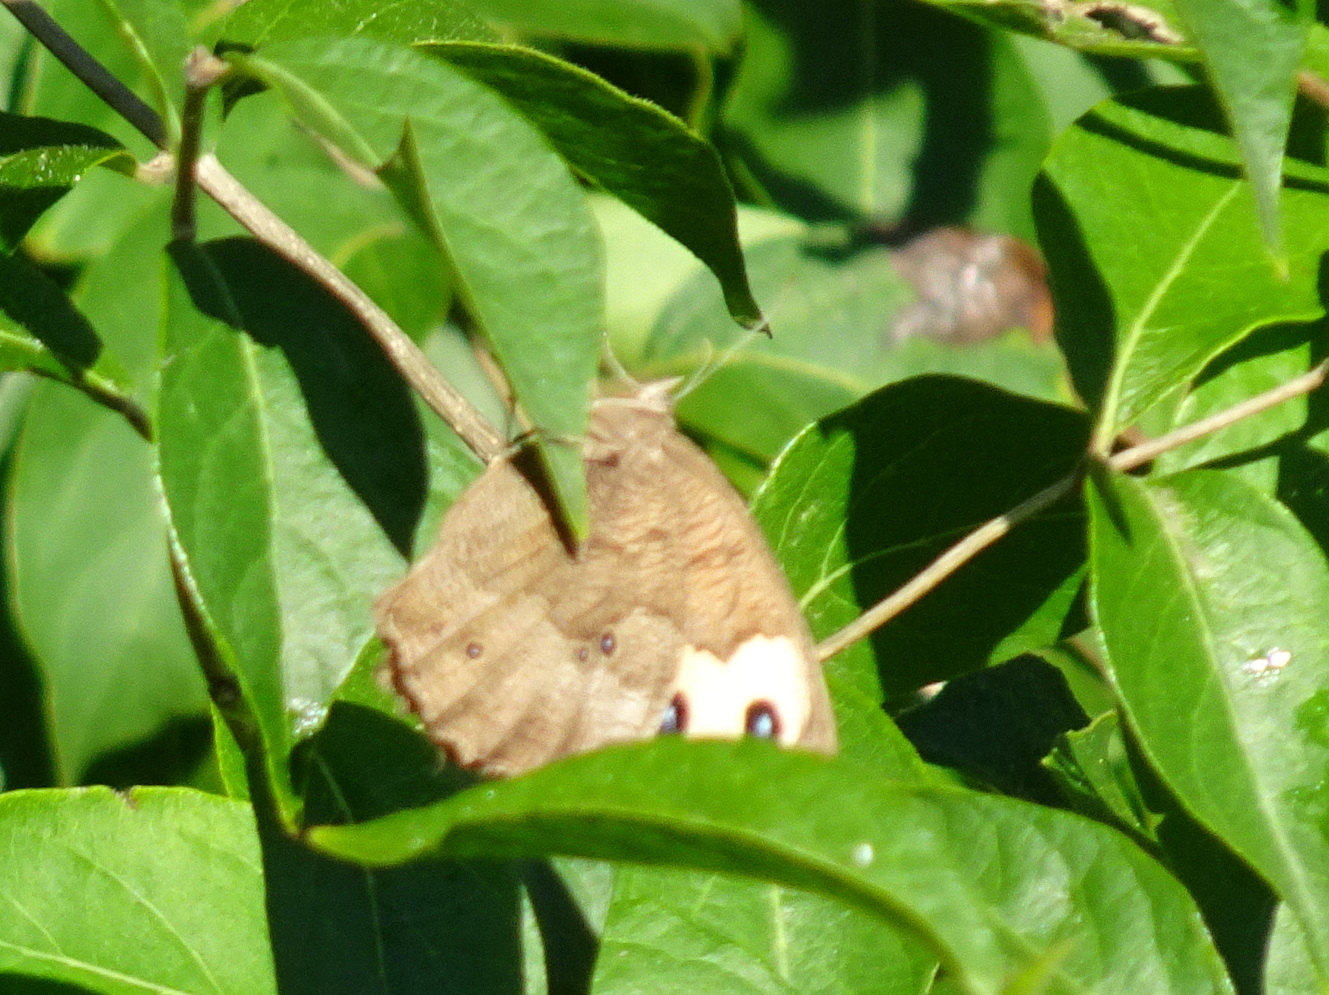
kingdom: Animalia
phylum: Arthropoda
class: Insecta
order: Lepidoptera
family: Nymphalidae
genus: Cercyonis
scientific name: Cercyonis pegala
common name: Common wood-nymph
